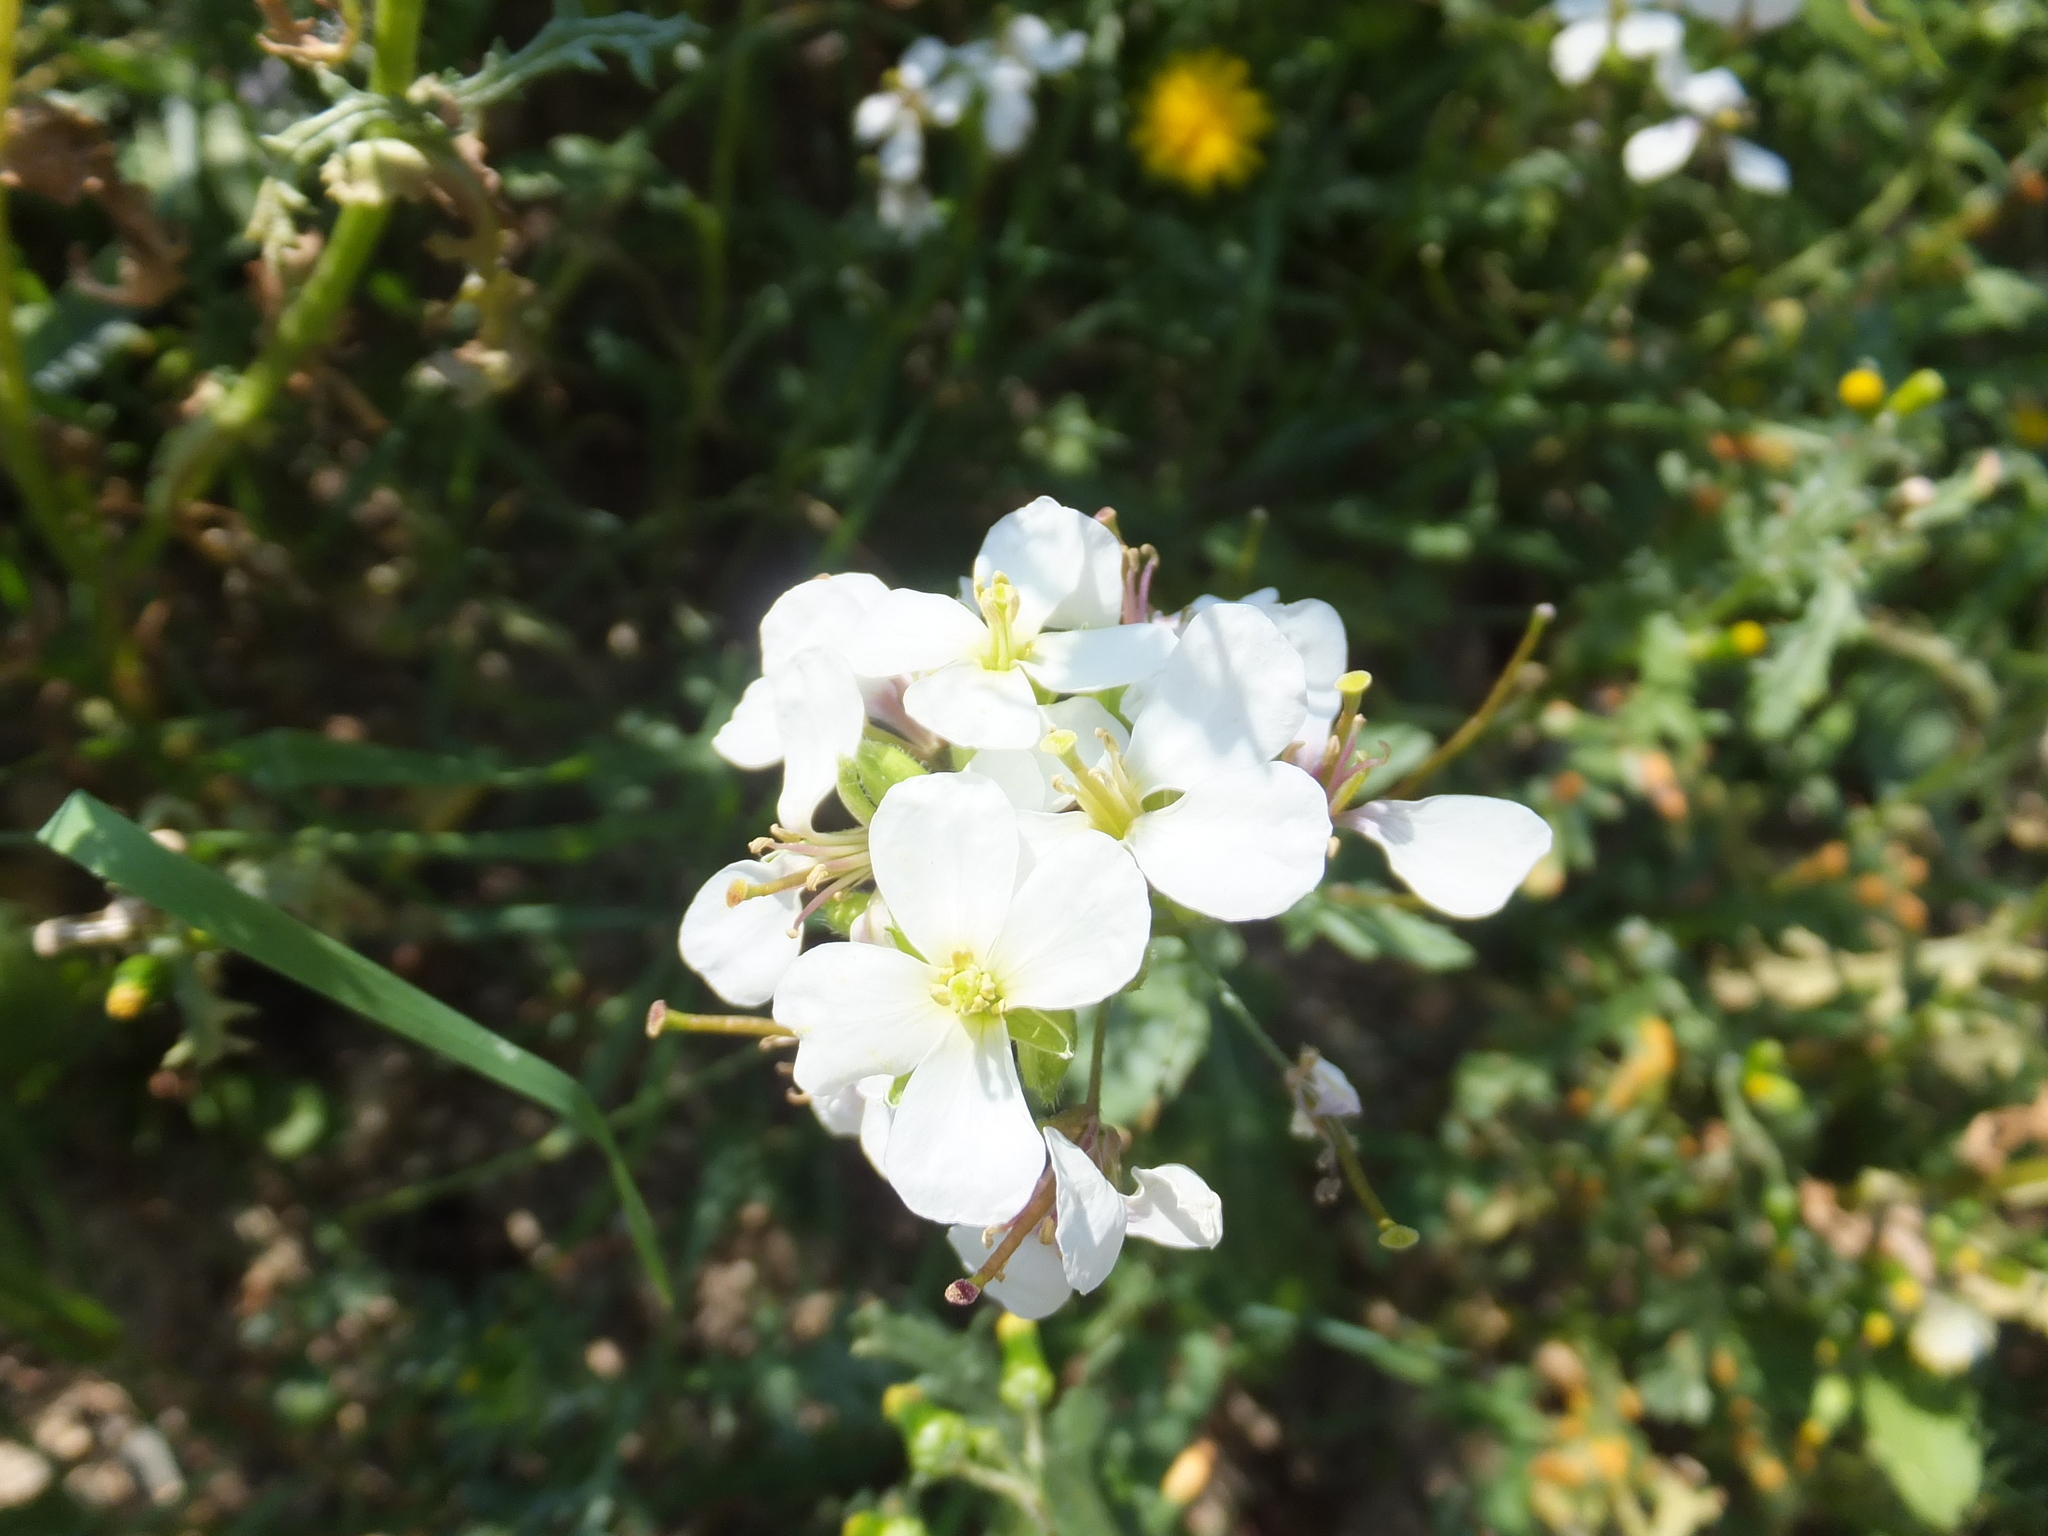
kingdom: Plantae
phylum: Tracheophyta
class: Magnoliopsida
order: Brassicales
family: Brassicaceae
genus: Diplotaxis
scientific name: Diplotaxis erucoides
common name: White rocket
